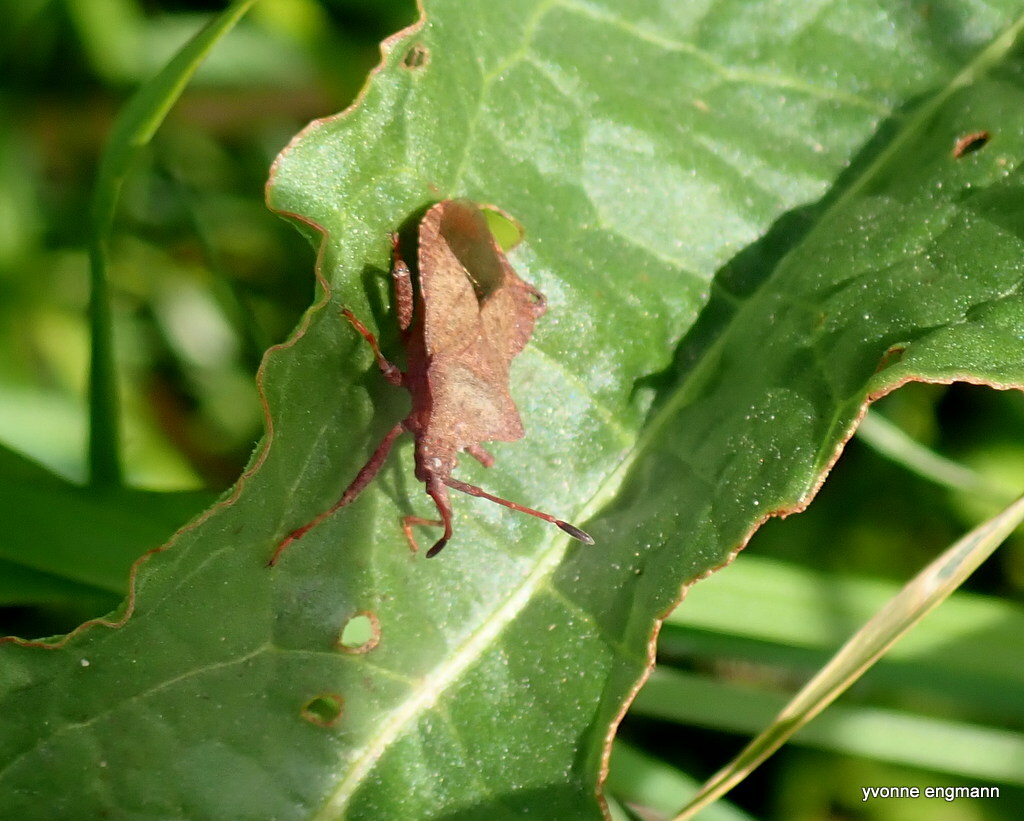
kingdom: Animalia
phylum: Arthropoda
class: Insecta
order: Hemiptera
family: Coreidae
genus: Coreus
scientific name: Coreus marginatus
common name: Dock bug
